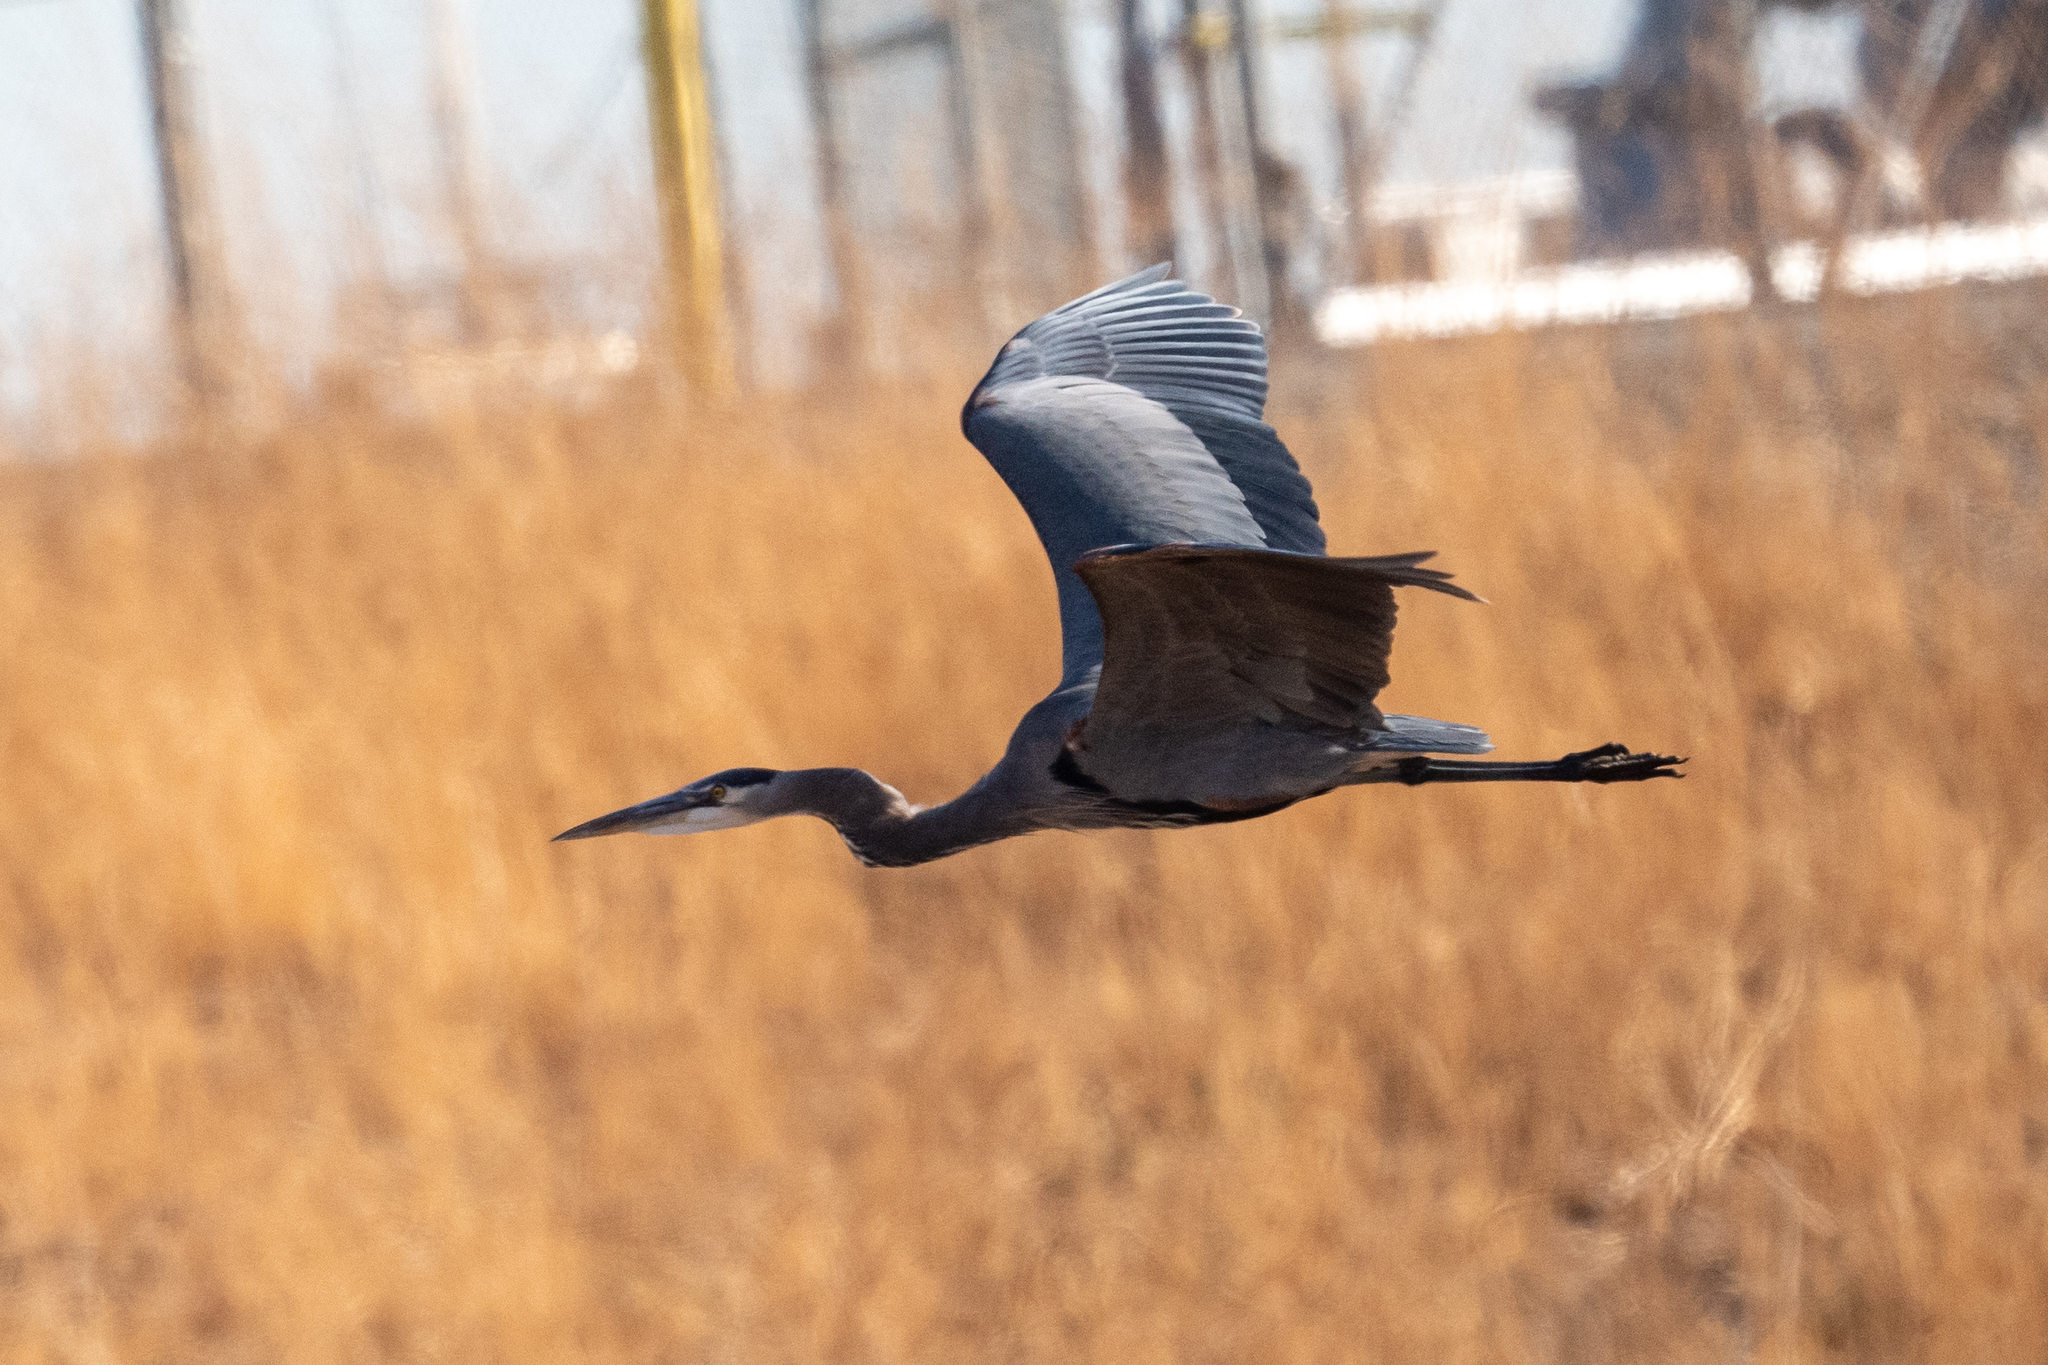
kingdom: Animalia
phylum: Chordata
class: Aves
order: Pelecaniformes
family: Ardeidae
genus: Ardea
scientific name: Ardea herodias
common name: Great blue heron
